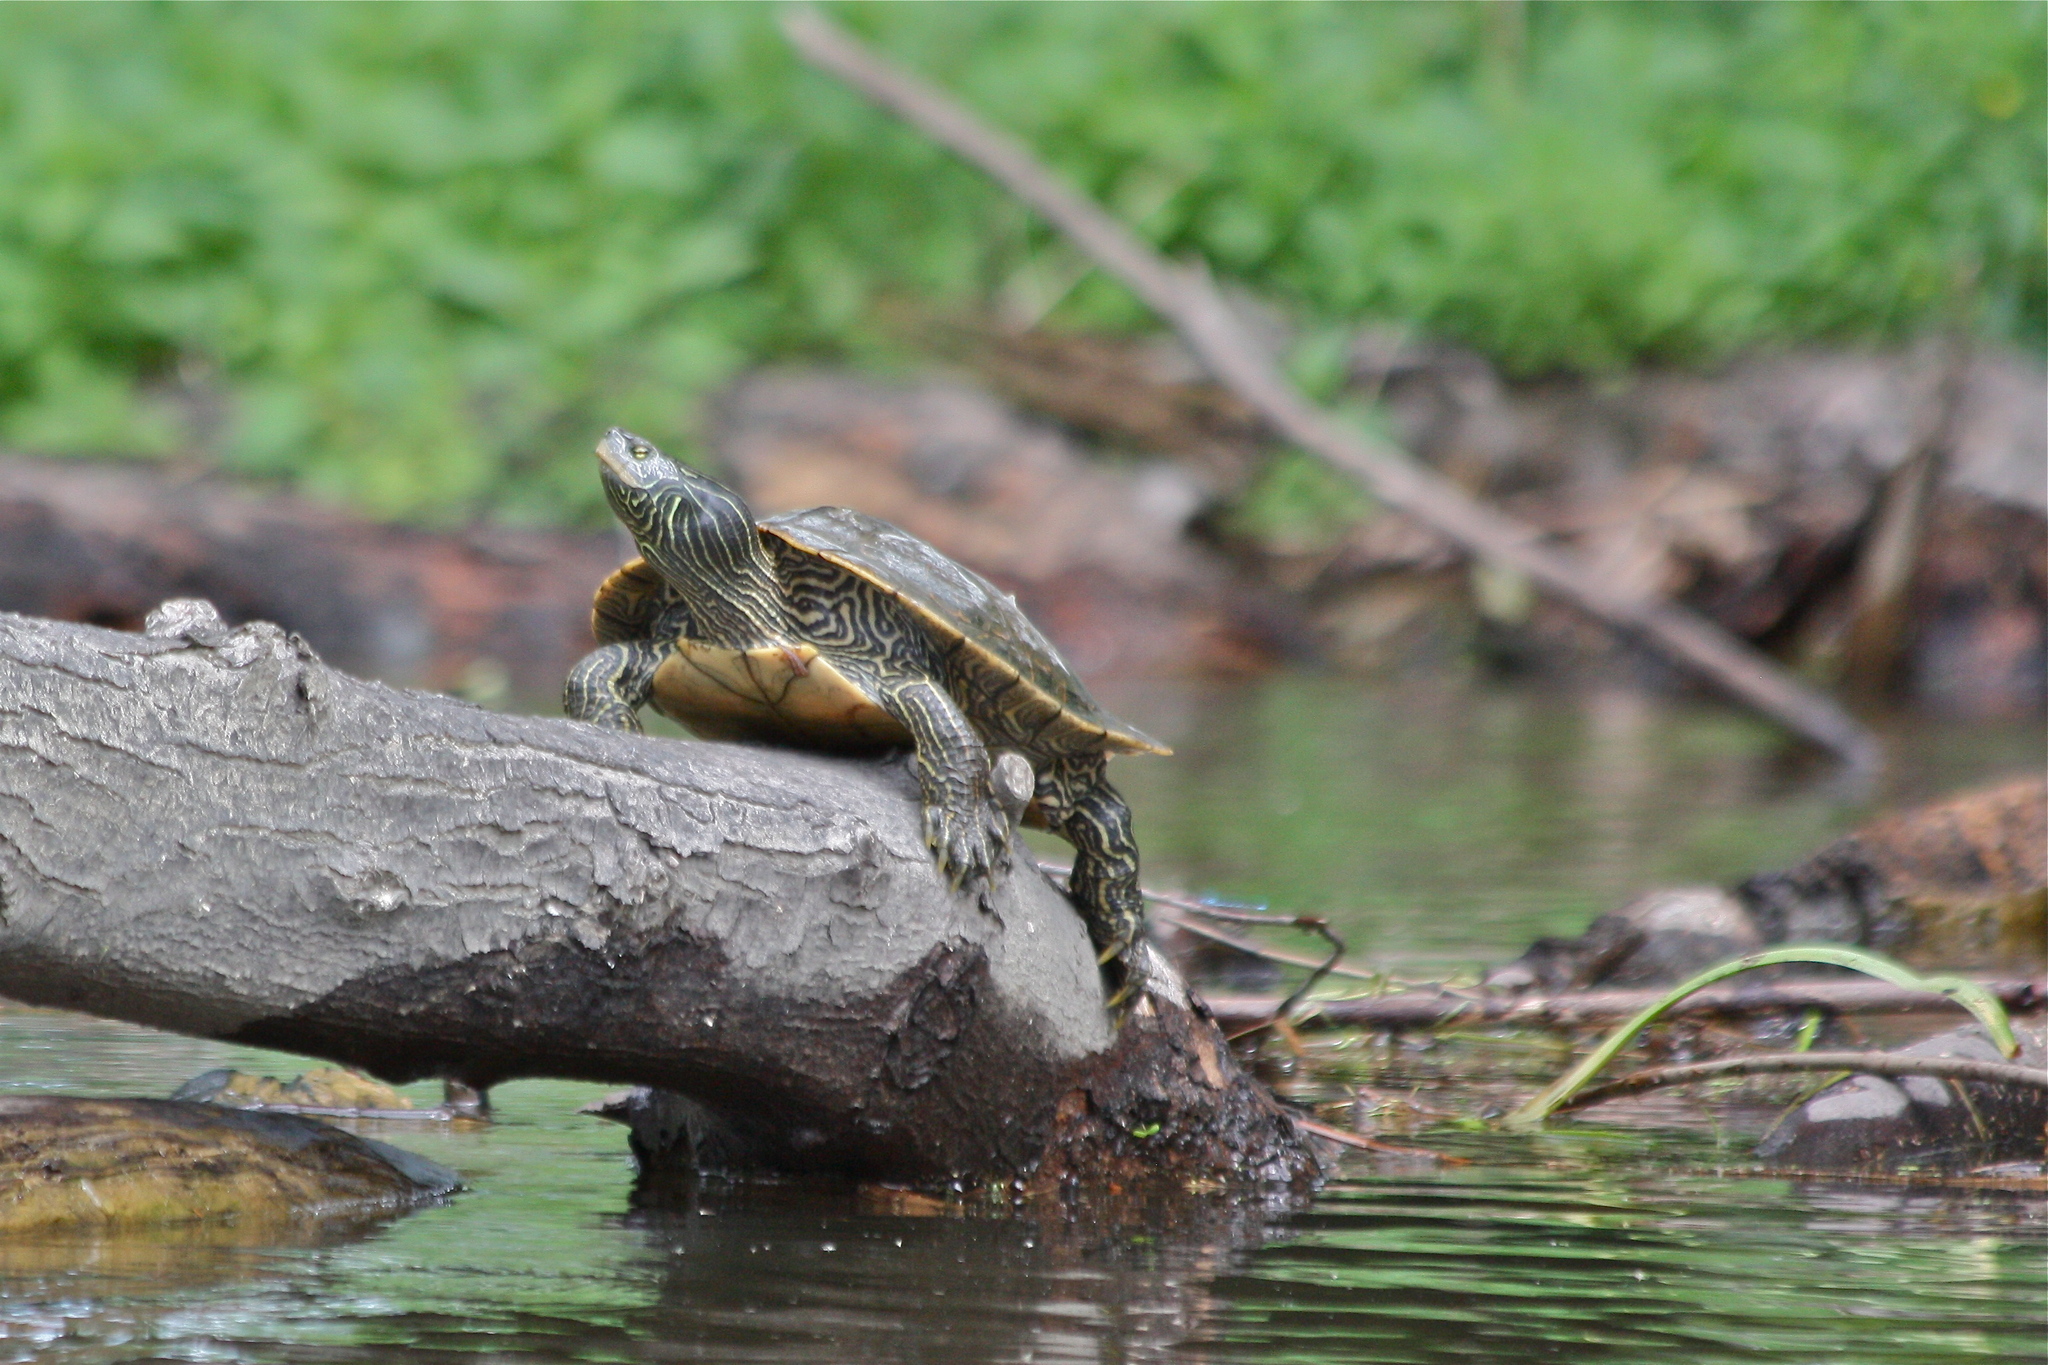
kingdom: Animalia
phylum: Chordata
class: Testudines
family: Emydidae
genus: Graptemys
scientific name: Graptemys geographica
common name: Common map turtle
